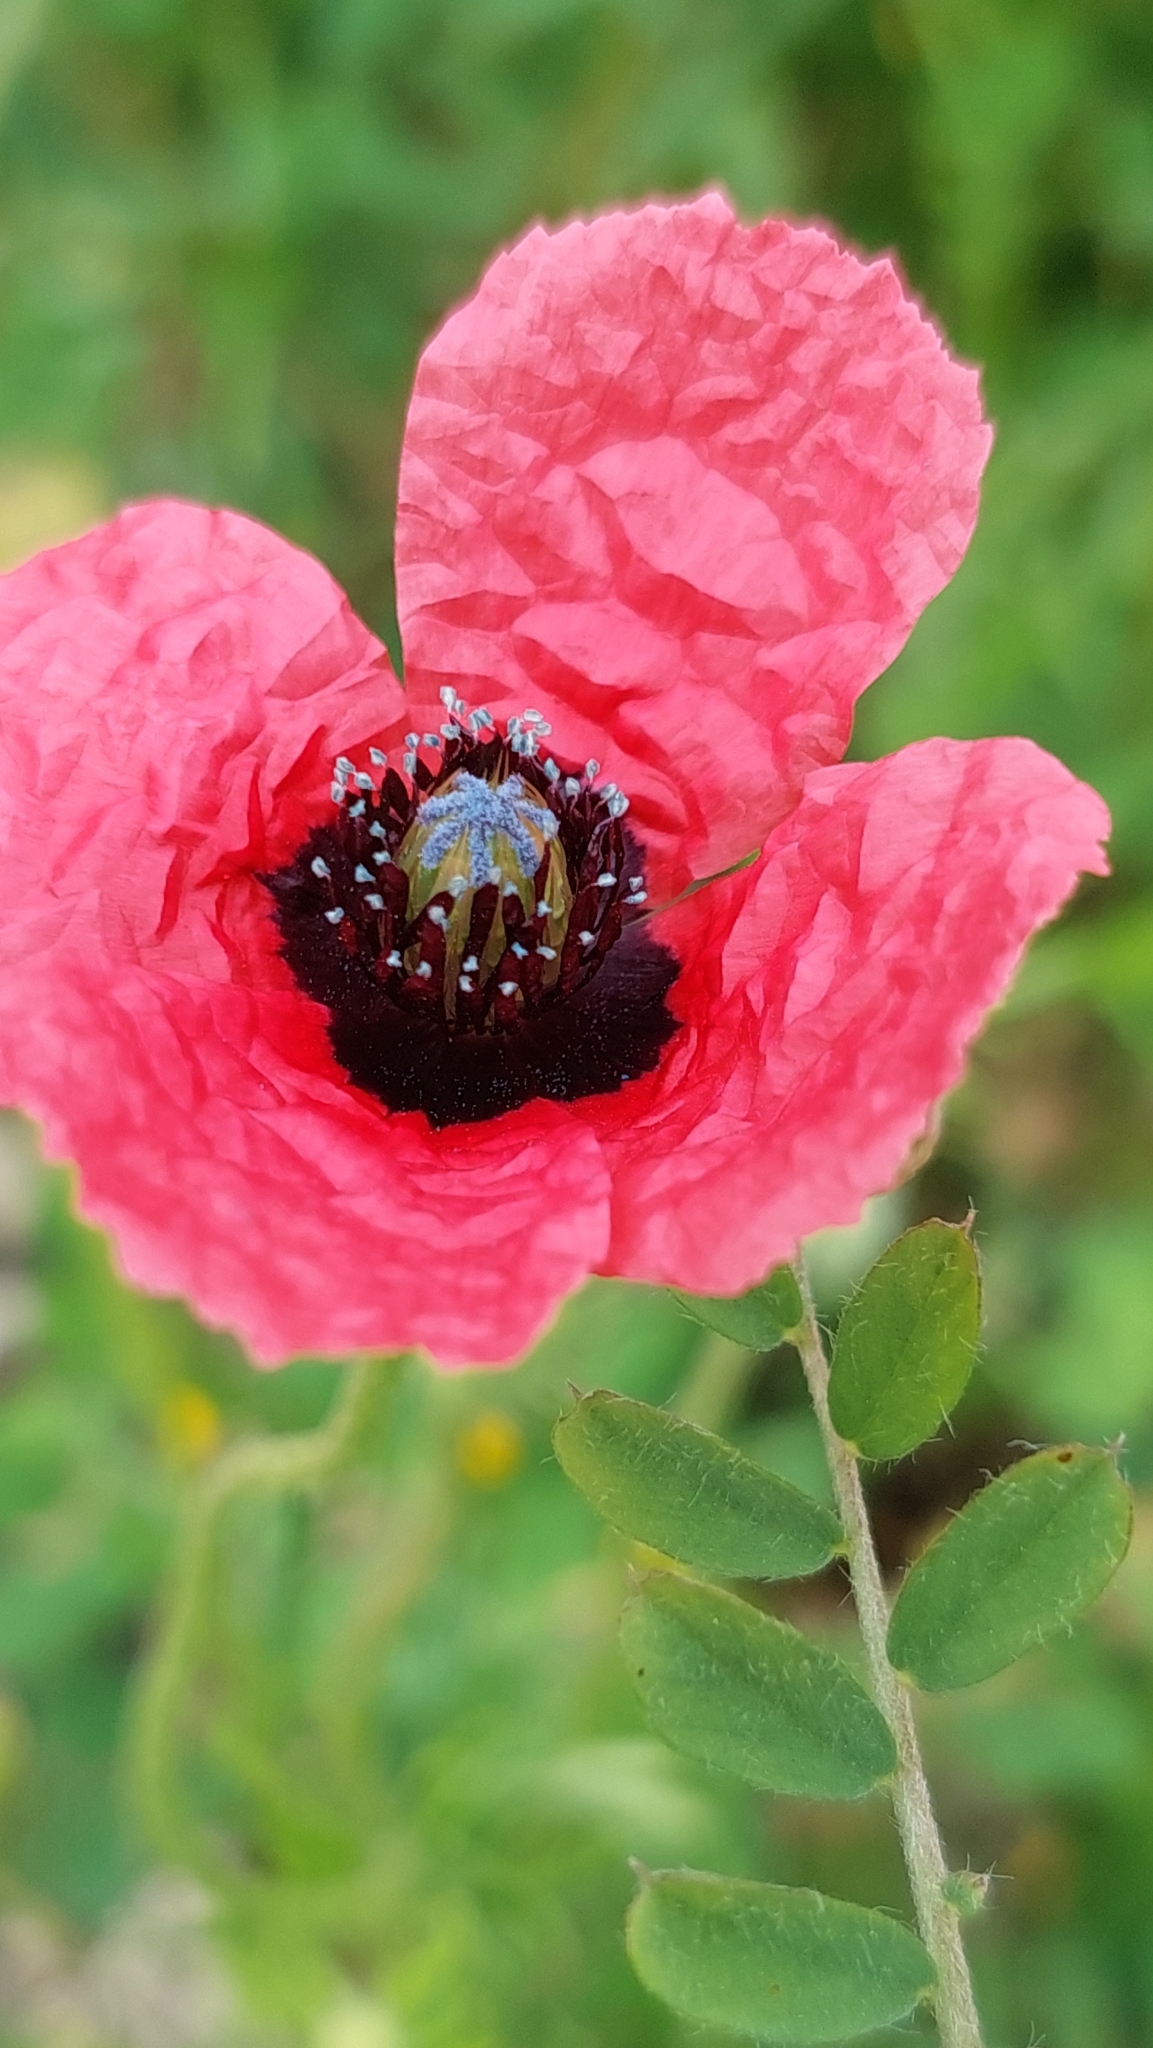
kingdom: Plantae
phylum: Tracheophyta
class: Magnoliopsida
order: Ranunculales
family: Papaveraceae
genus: Roemeria
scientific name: Roemeria hispida
